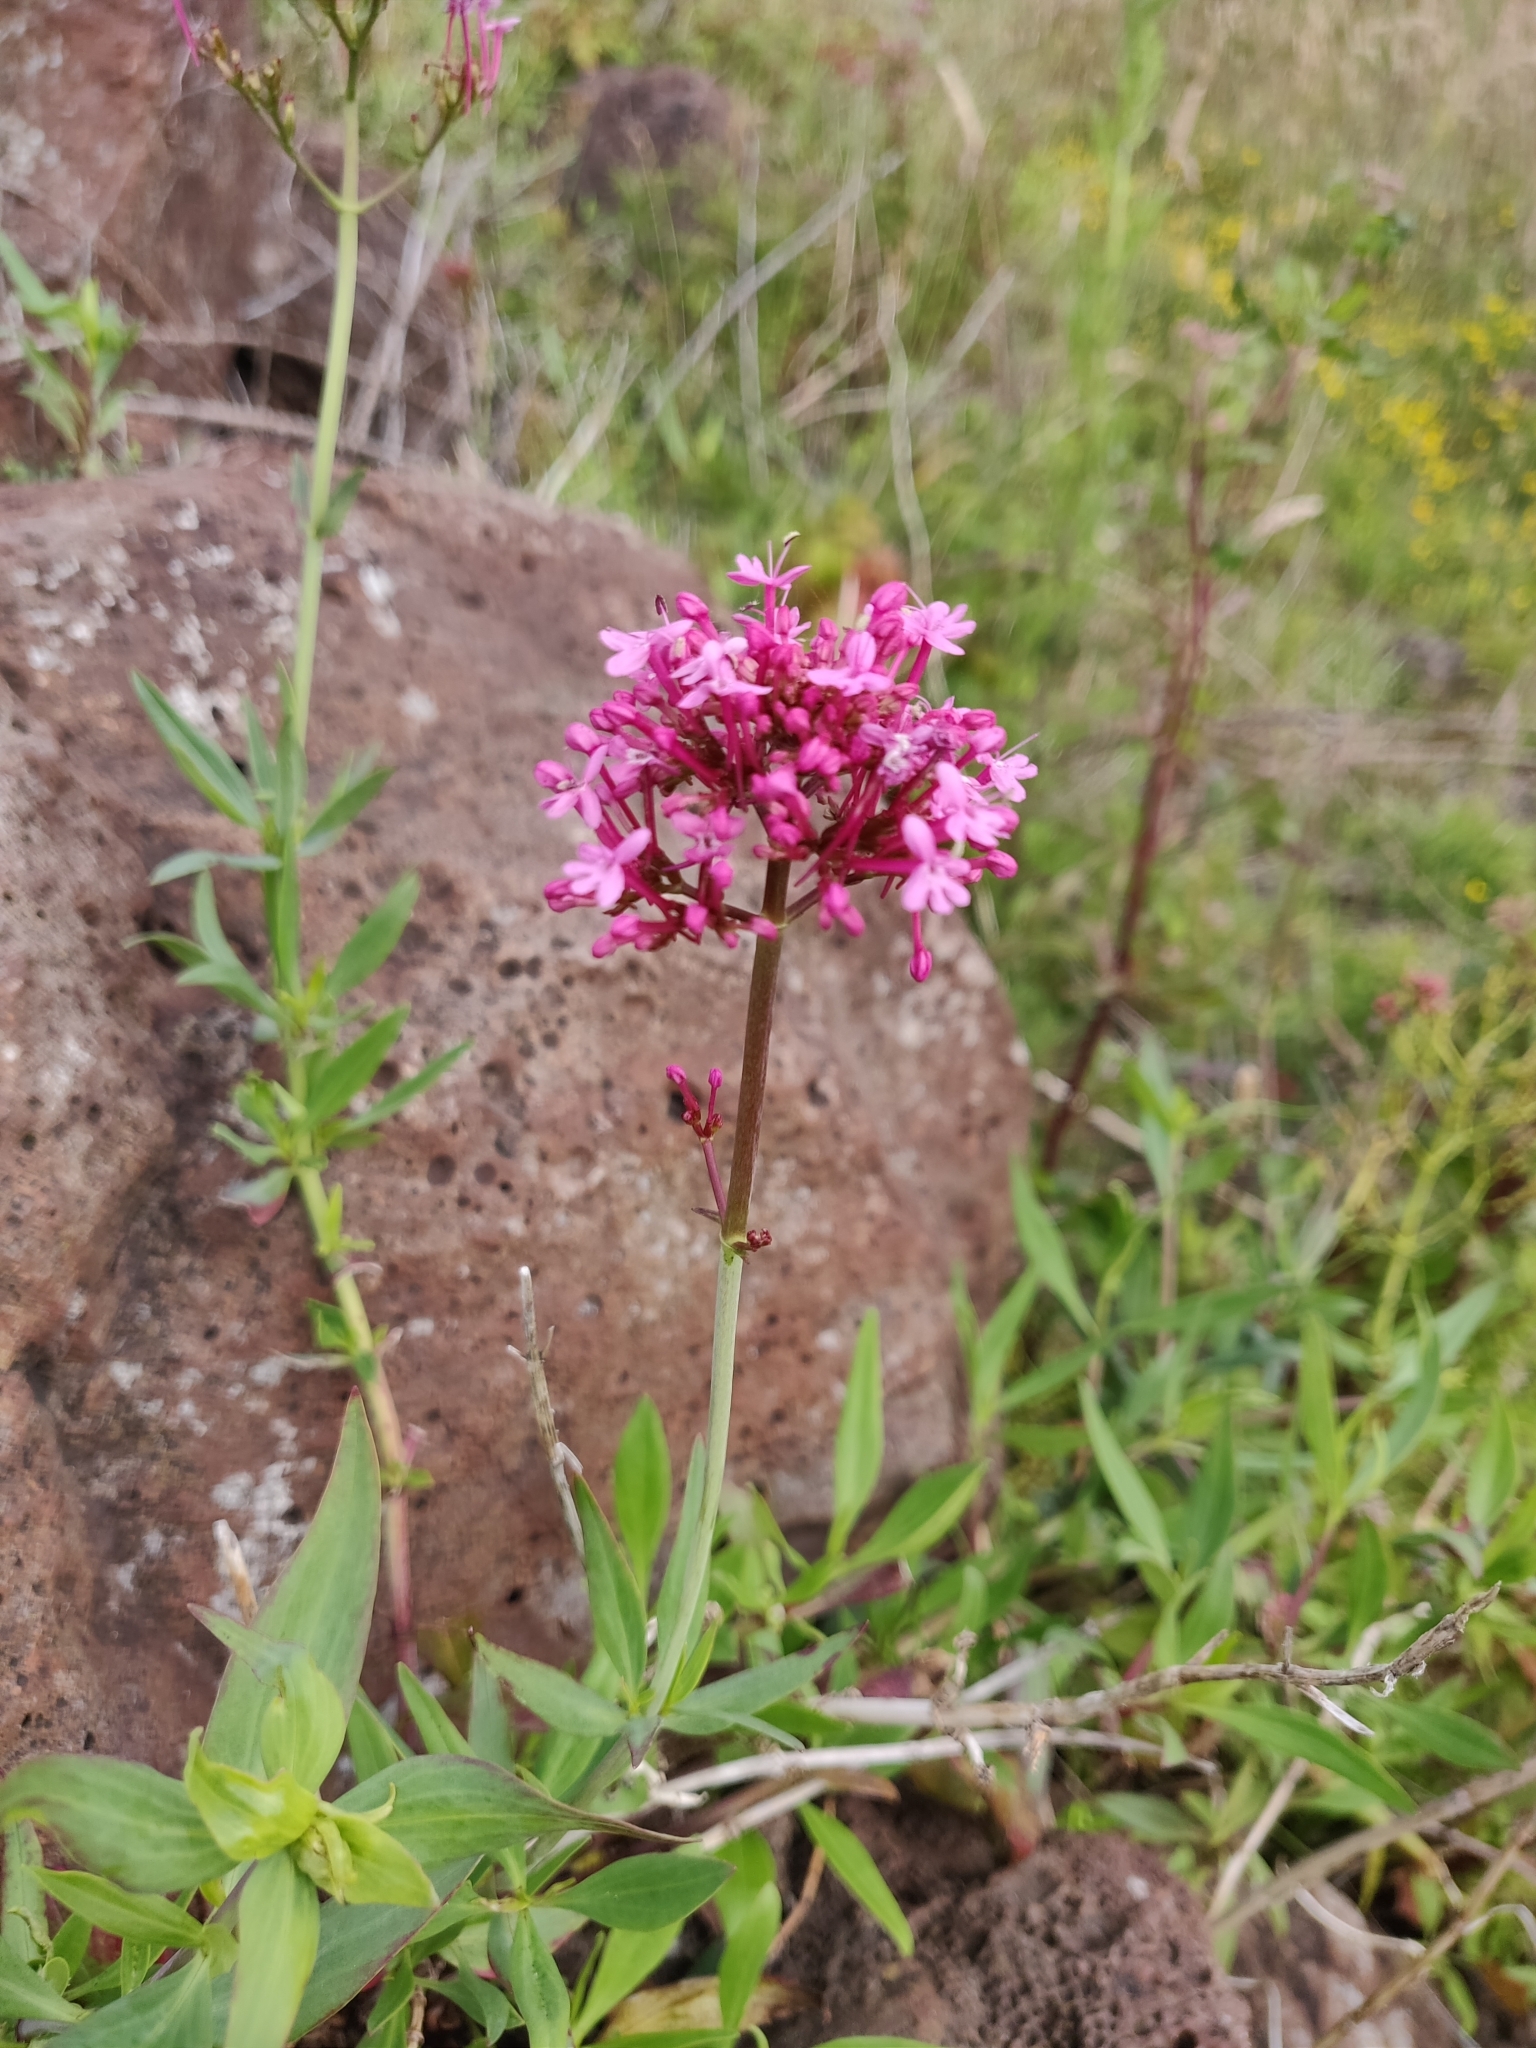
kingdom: Plantae
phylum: Tracheophyta
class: Magnoliopsida
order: Dipsacales
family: Caprifoliaceae
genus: Centranthus
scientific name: Centranthus ruber
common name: Red valerian
